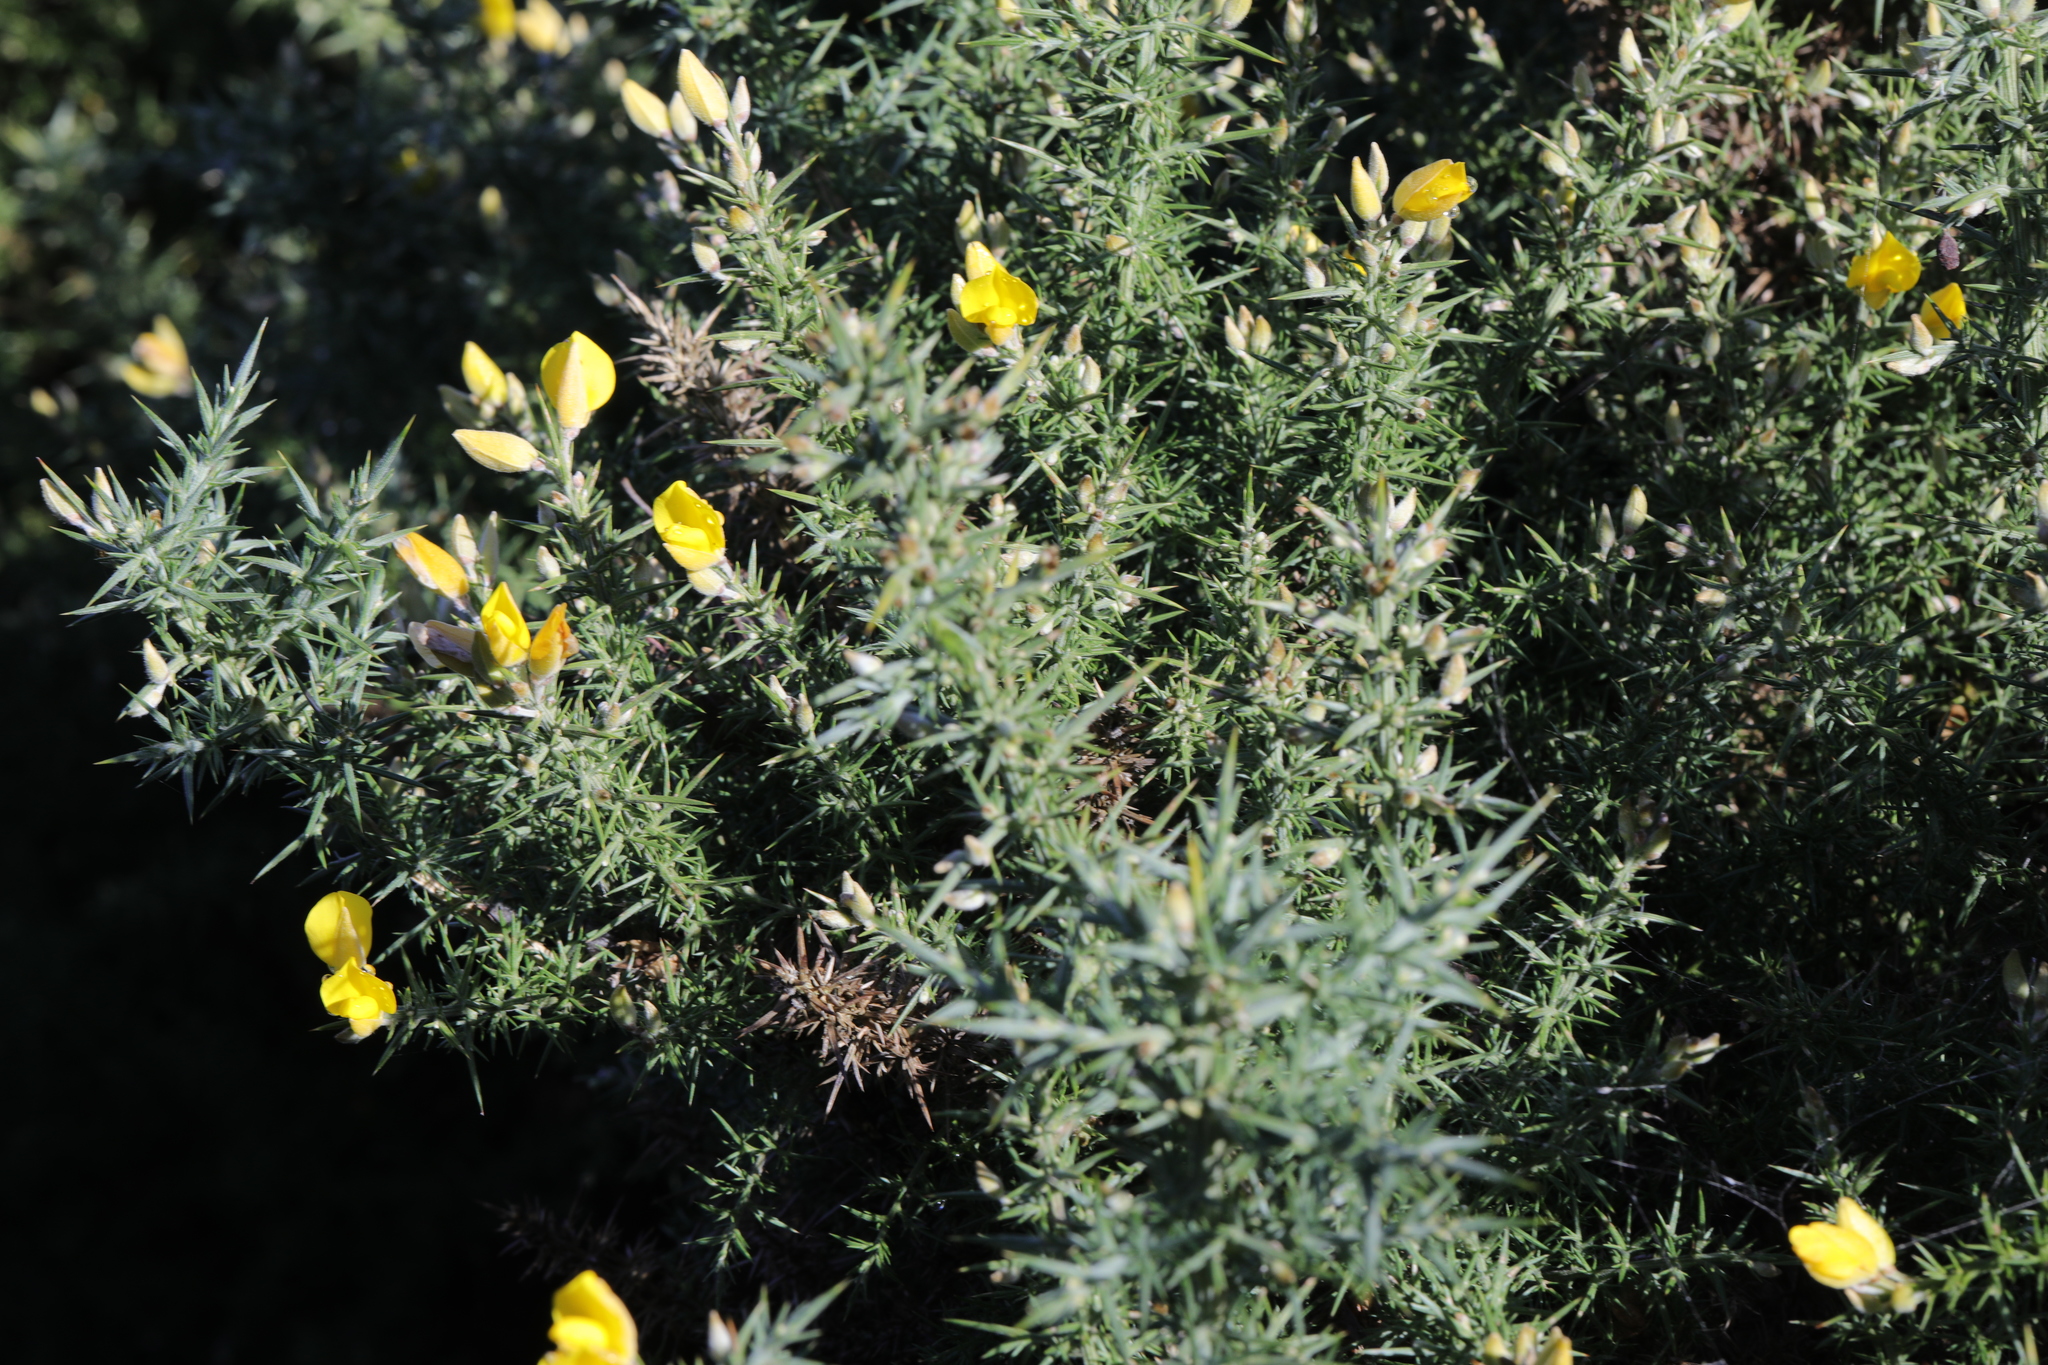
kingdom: Plantae
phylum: Tracheophyta
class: Magnoliopsida
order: Fabales
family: Fabaceae
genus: Ulex
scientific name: Ulex europaeus
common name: Common gorse
